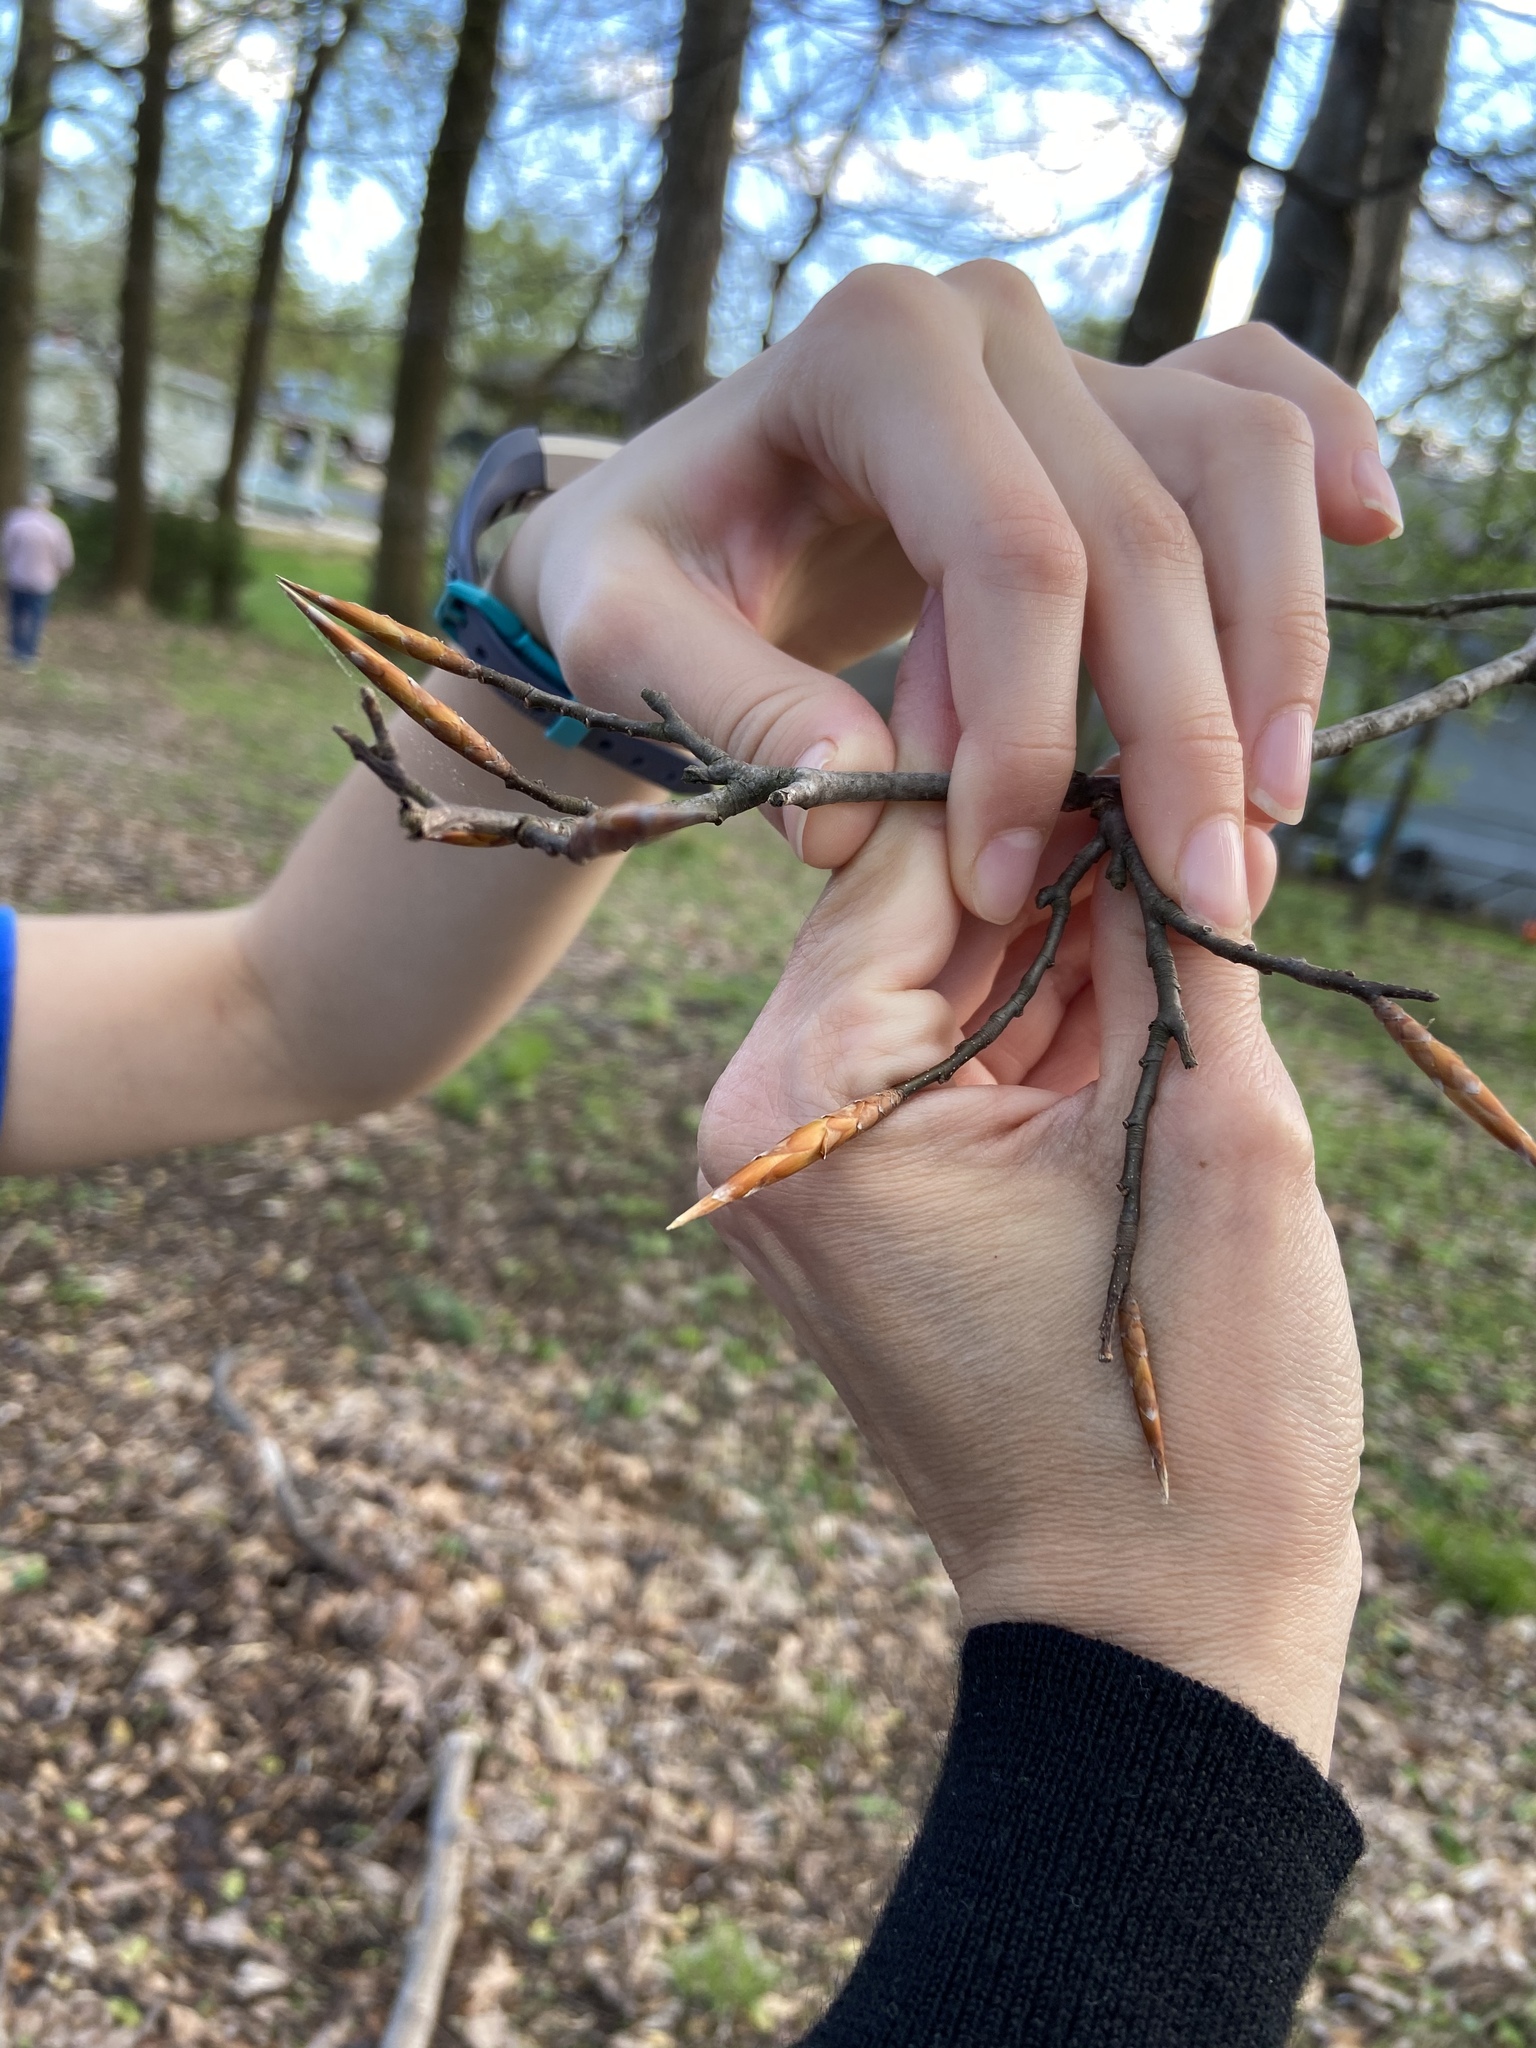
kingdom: Plantae
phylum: Tracheophyta
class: Magnoliopsida
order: Fagales
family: Fagaceae
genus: Fagus
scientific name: Fagus grandifolia
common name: American beech
